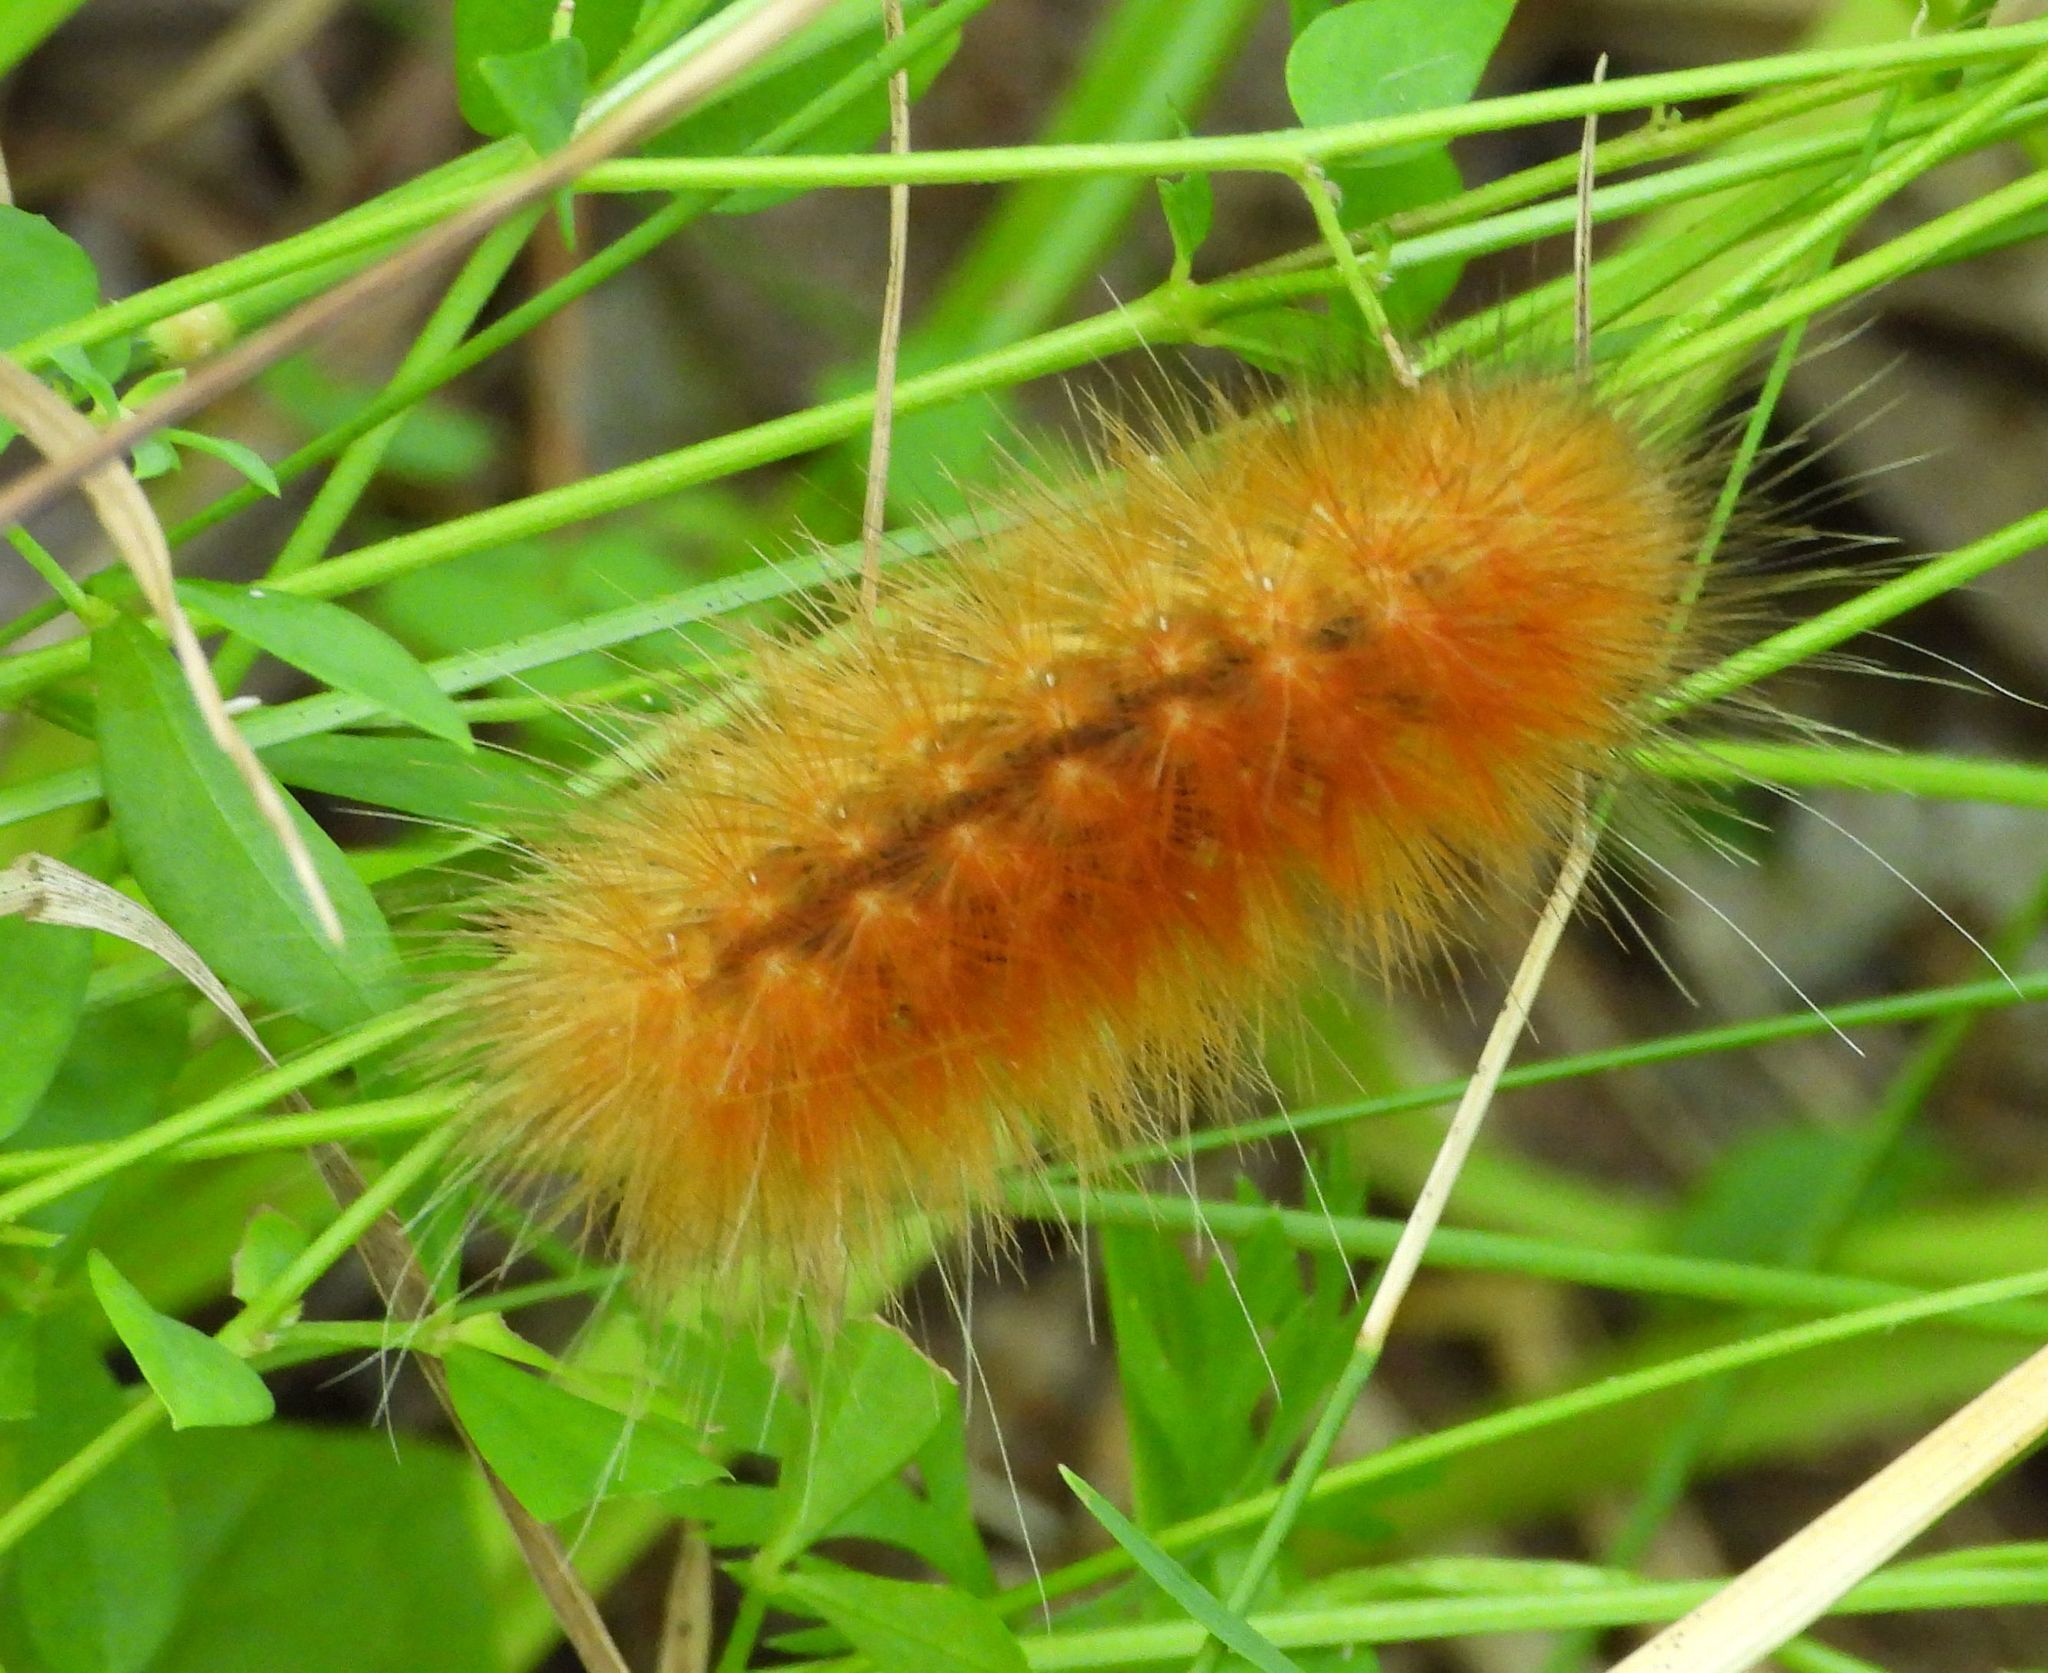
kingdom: Animalia
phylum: Arthropoda
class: Insecta
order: Lepidoptera
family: Erebidae
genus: Spilosoma
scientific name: Spilosoma virginica
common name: Virginia tiger moth
